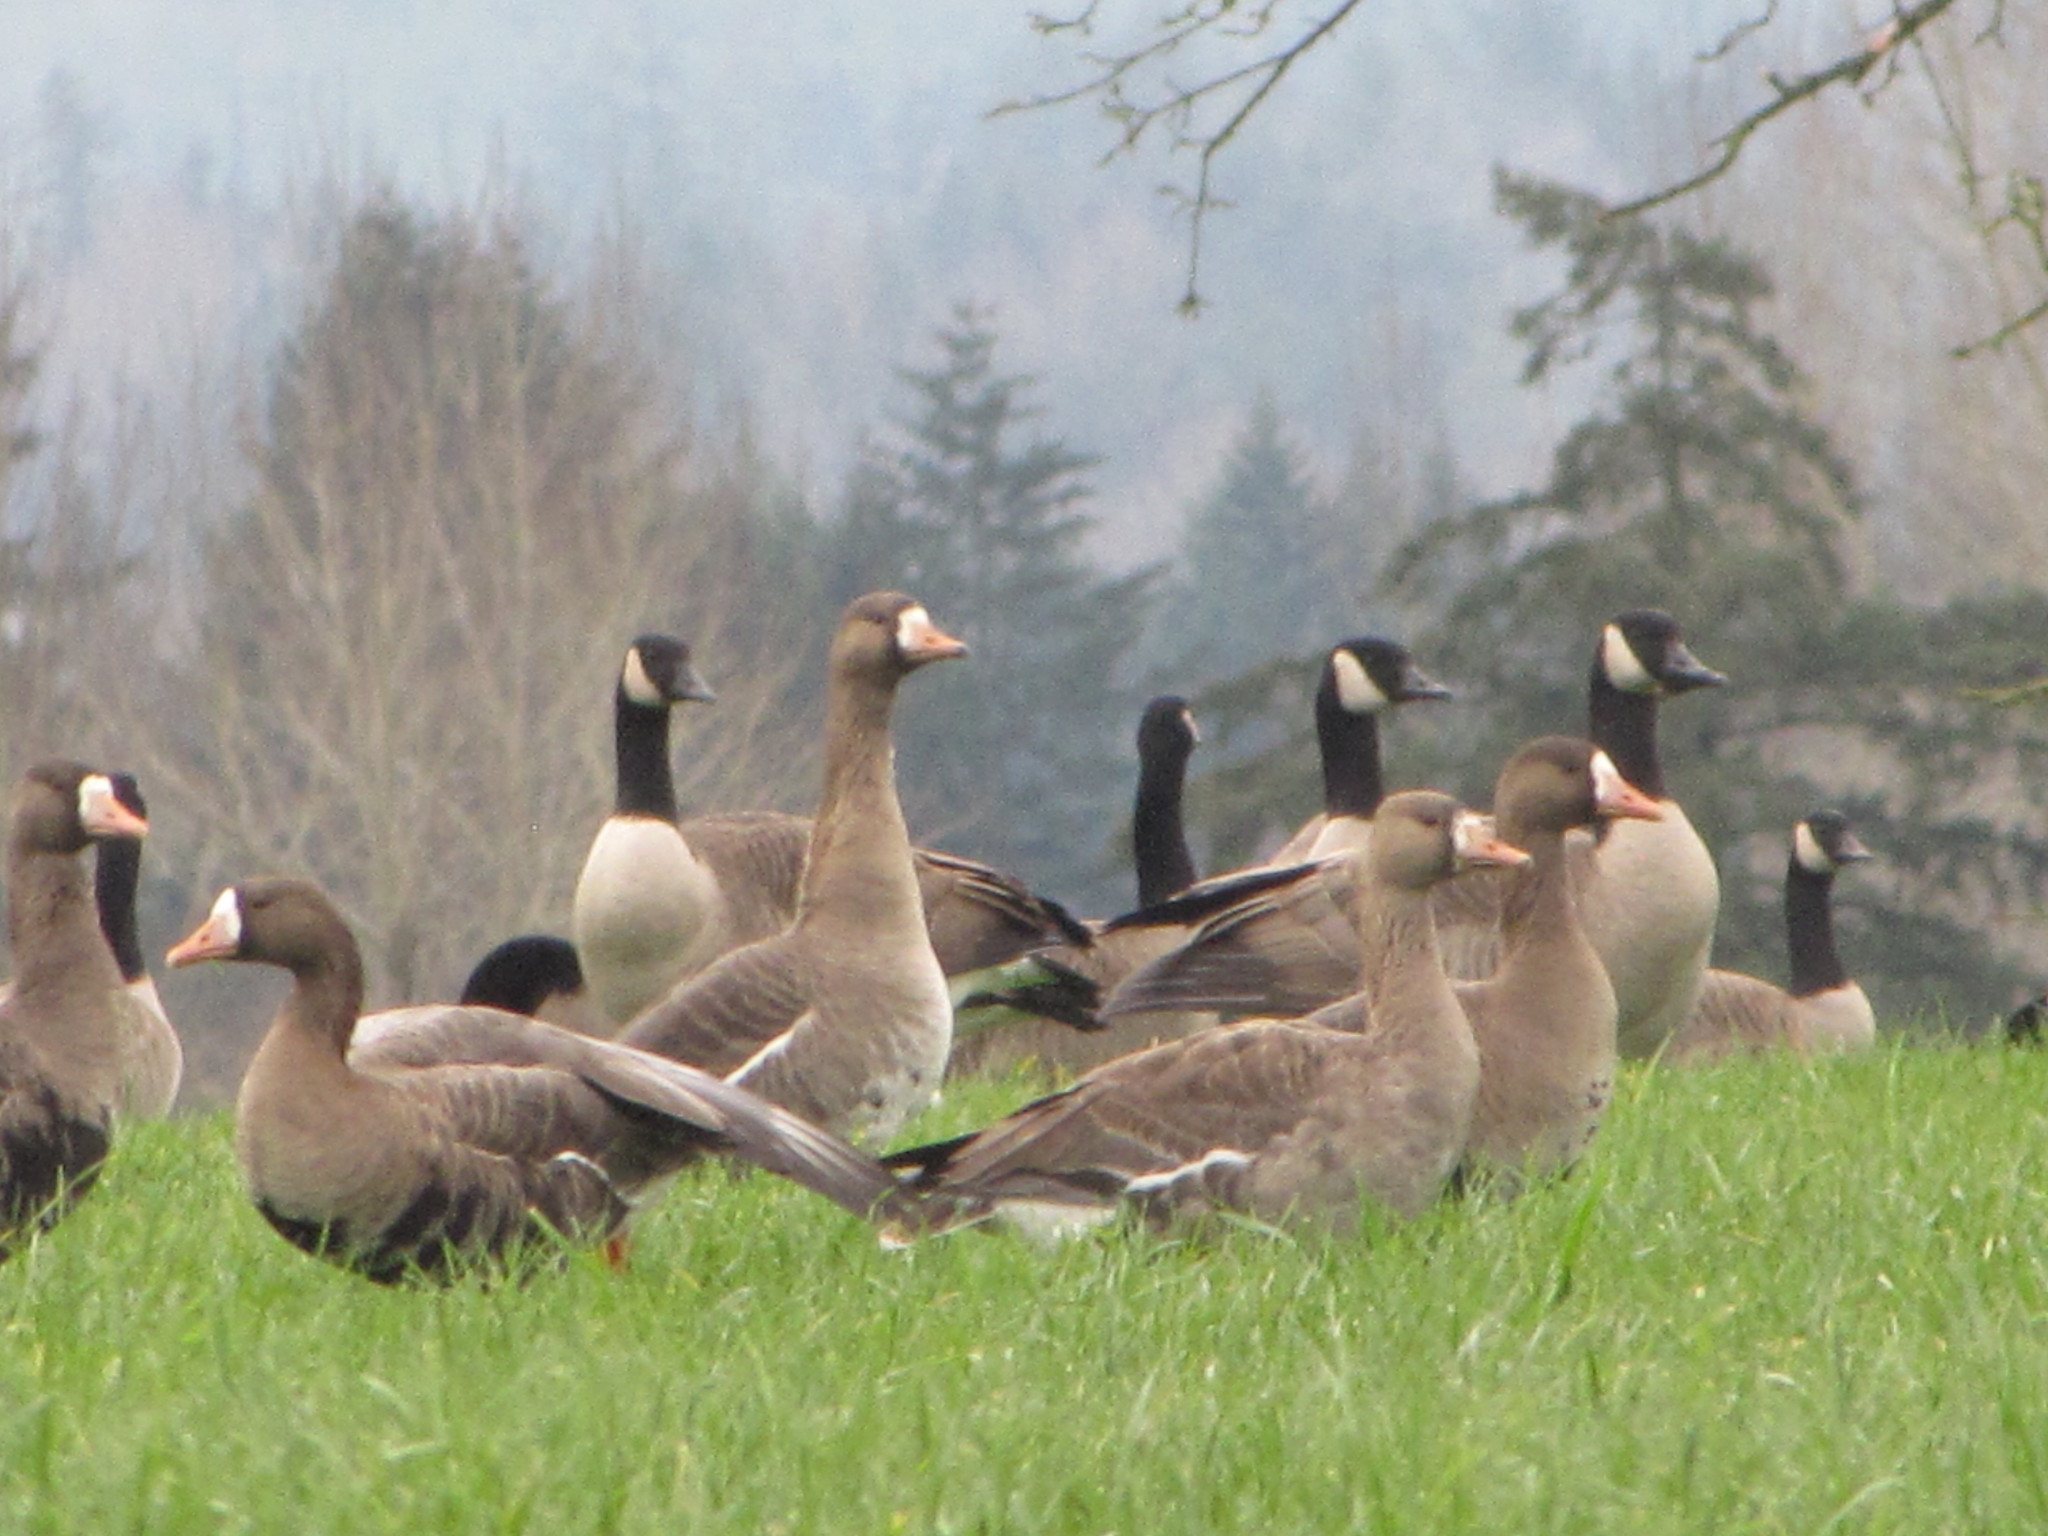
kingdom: Animalia
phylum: Chordata
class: Aves
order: Anseriformes
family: Anatidae
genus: Anser
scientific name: Anser albifrons
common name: Greater white-fronted goose
